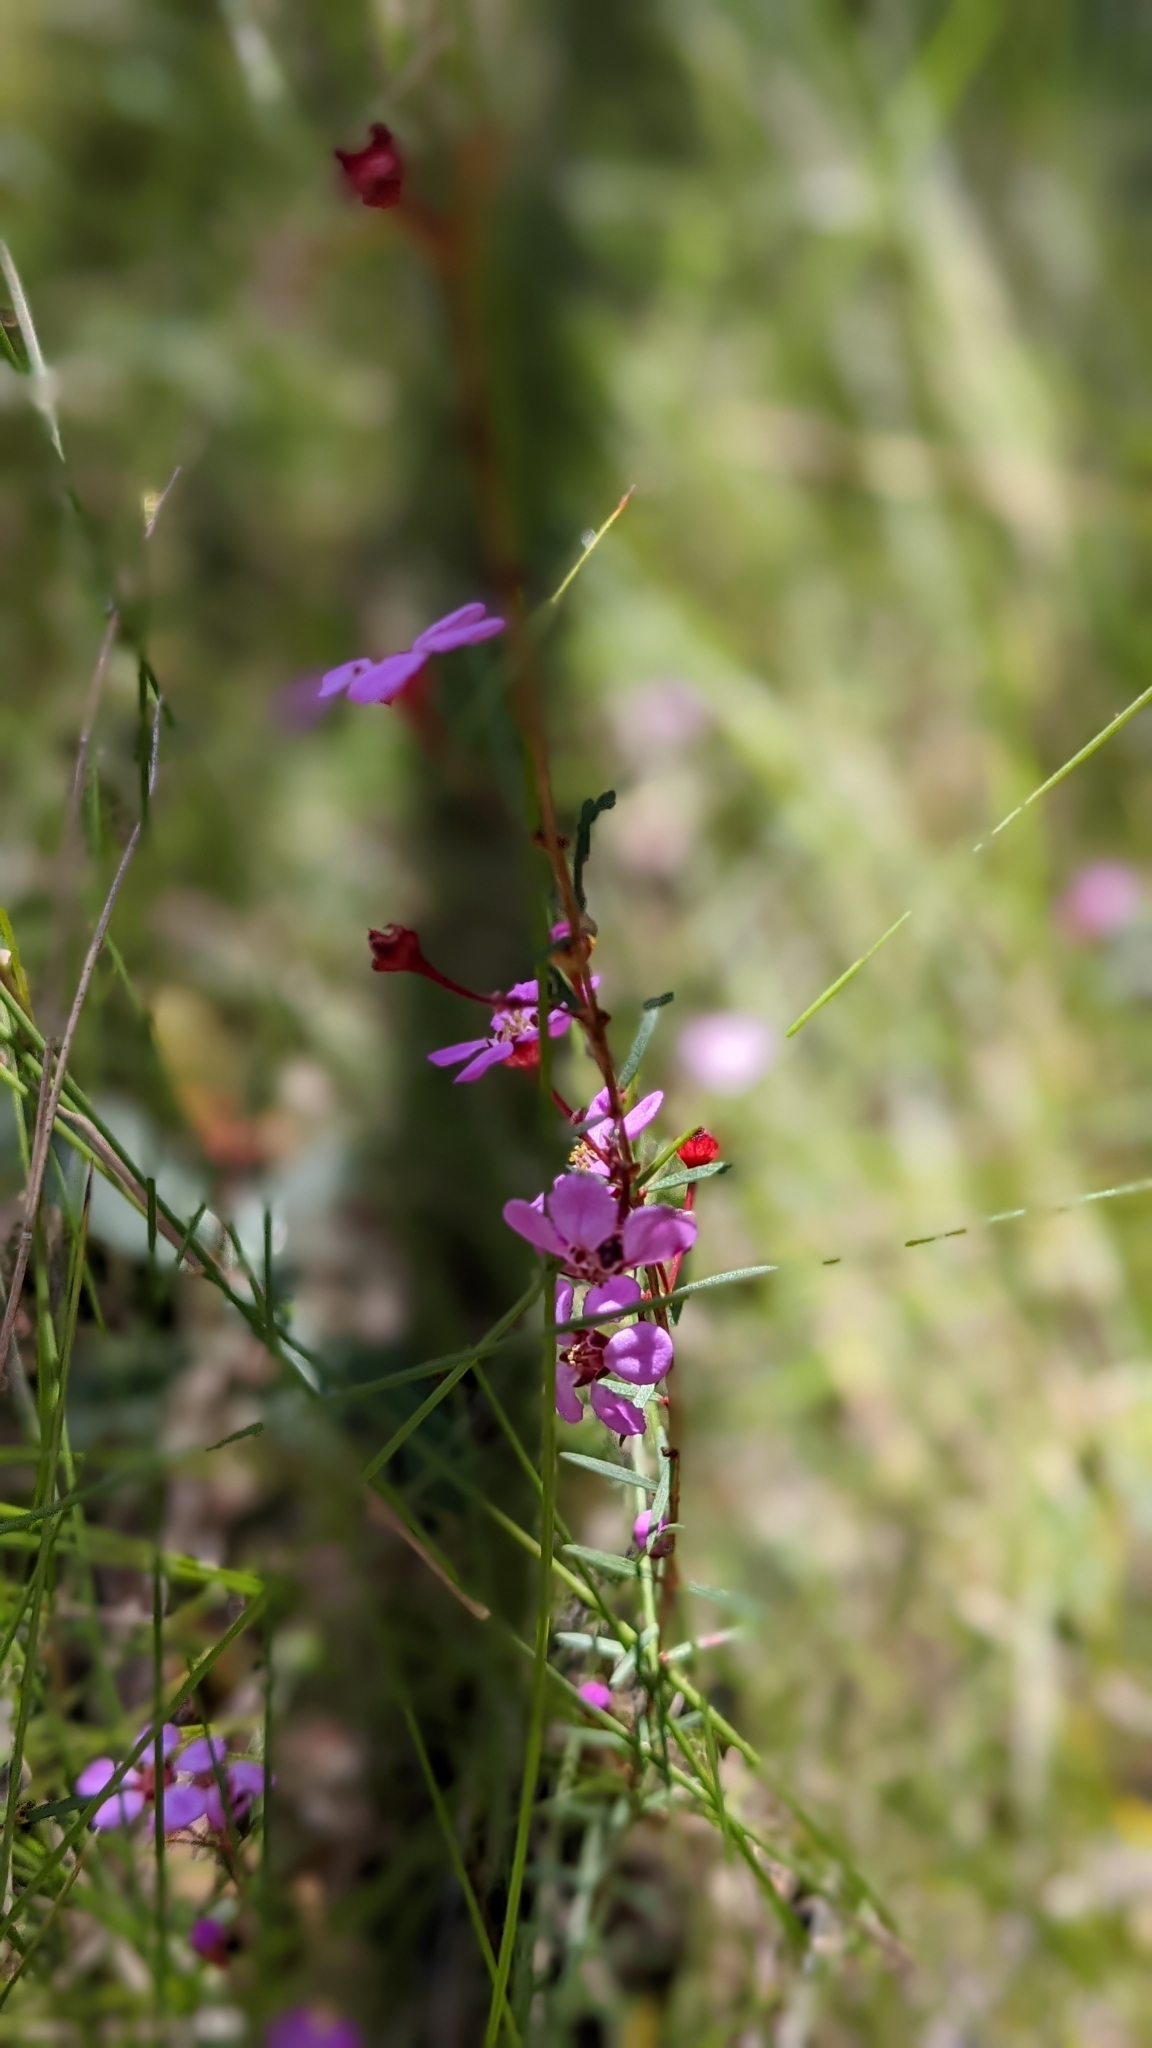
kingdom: Plantae
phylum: Tracheophyta
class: Magnoliopsida
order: Myrtales
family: Myrtaceae
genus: Euryomyrtus
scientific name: Euryomyrtus ramosissima
